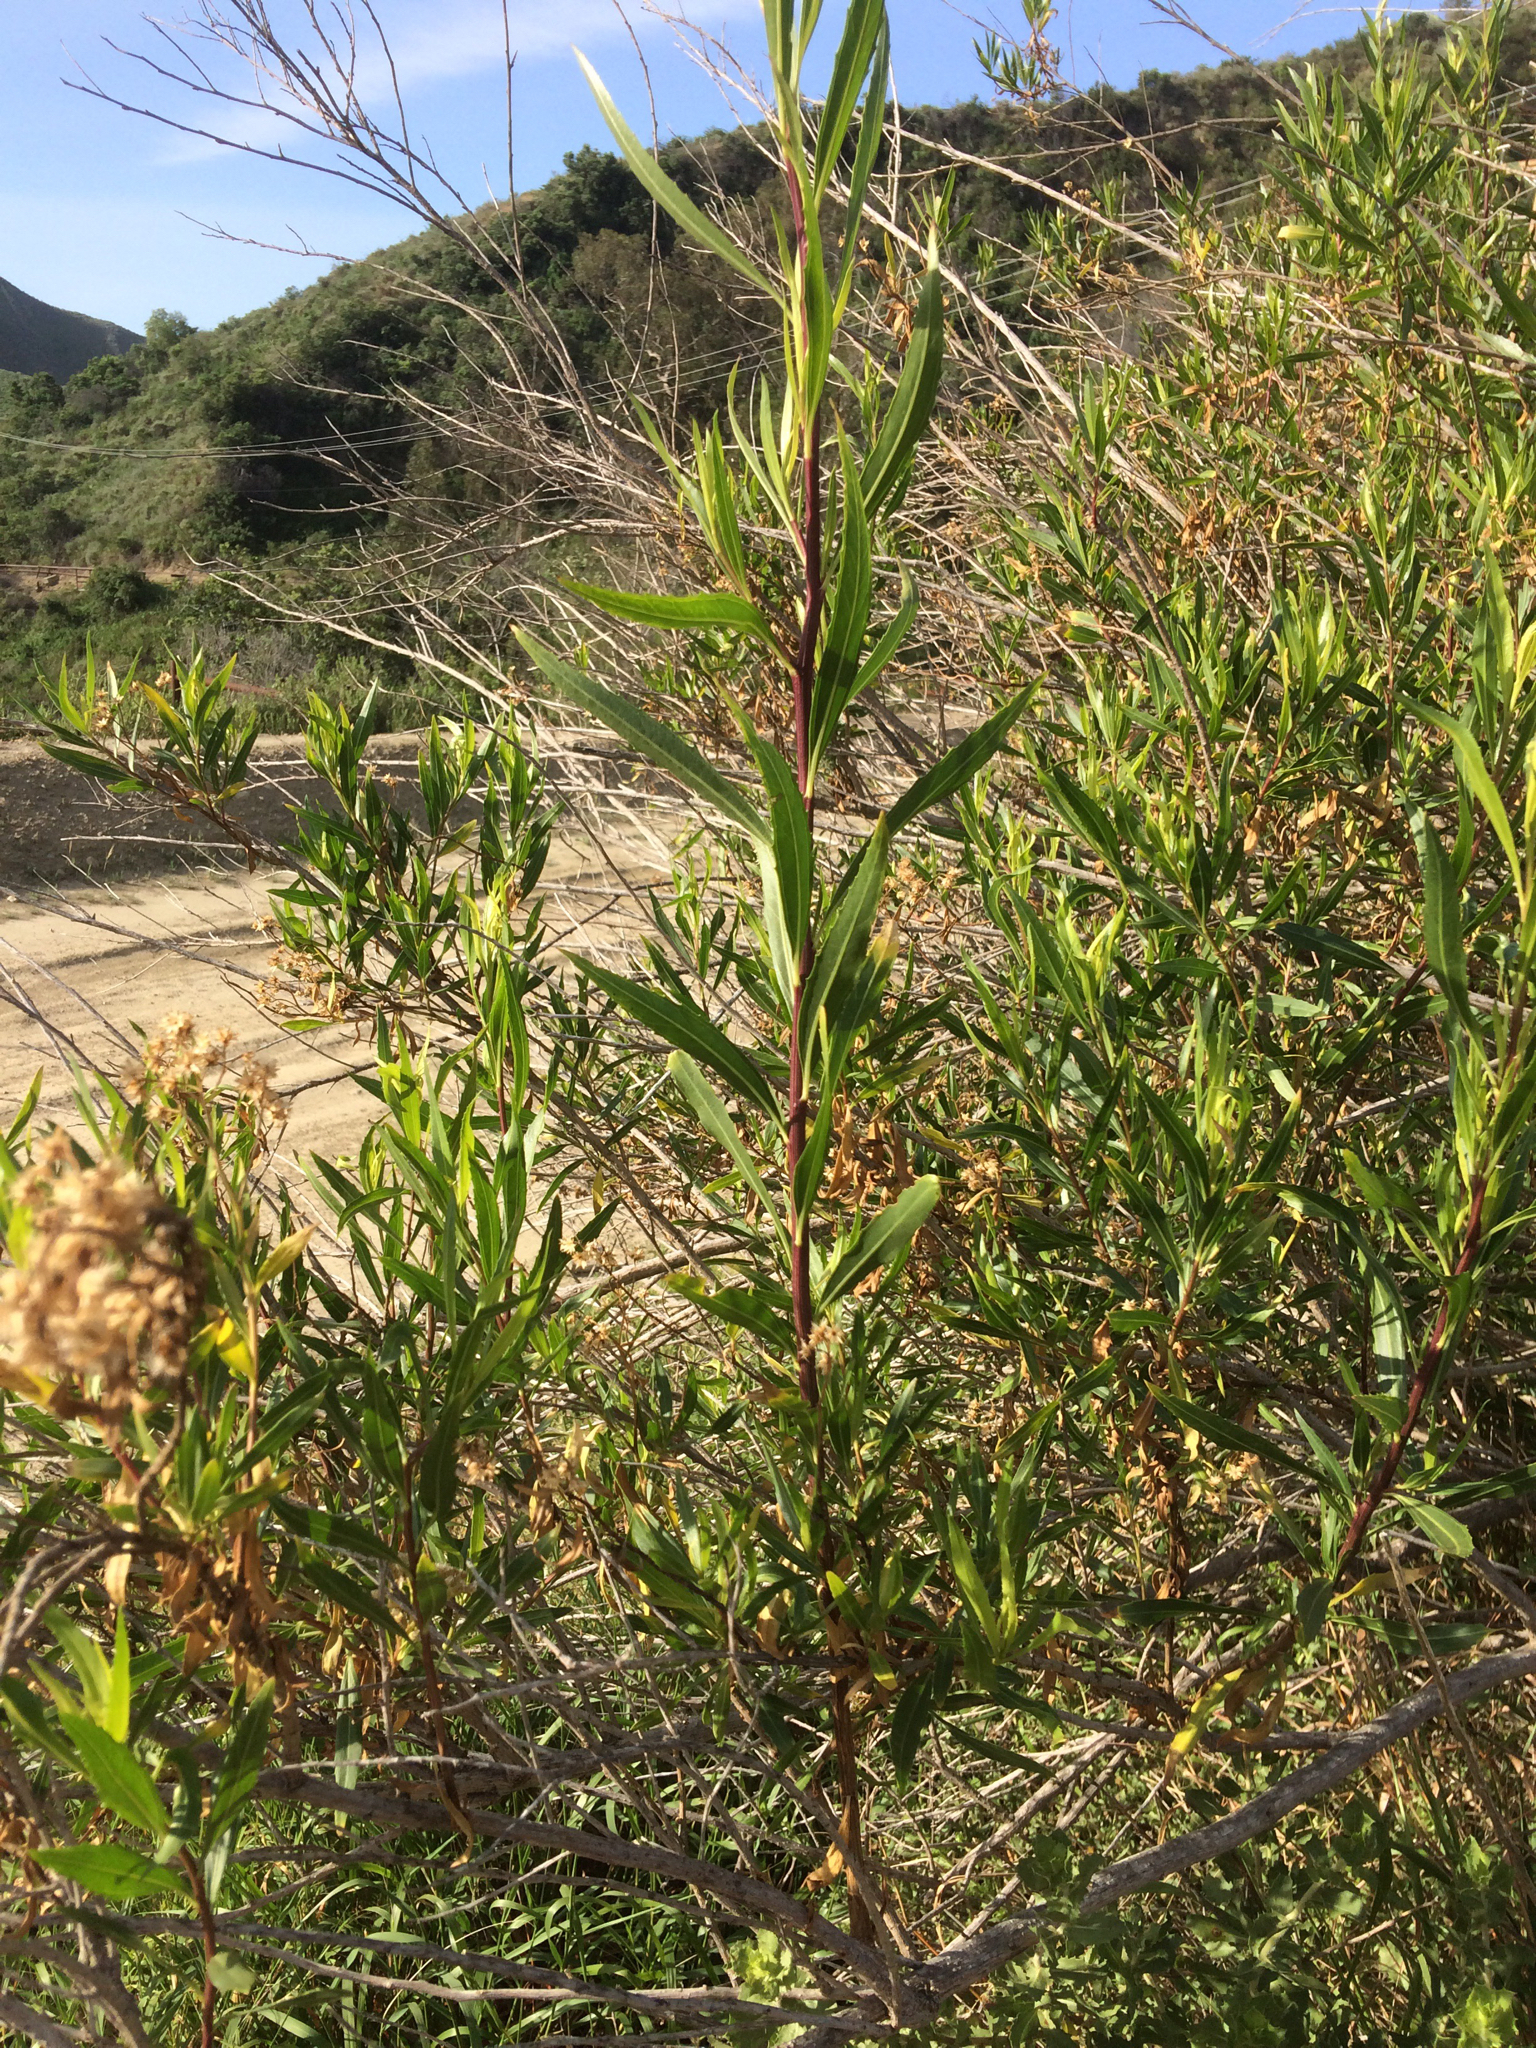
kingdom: Plantae
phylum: Tracheophyta
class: Magnoliopsida
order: Asterales
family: Asteraceae
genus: Baccharis
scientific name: Baccharis salicifolia
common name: Sticky baccharis
